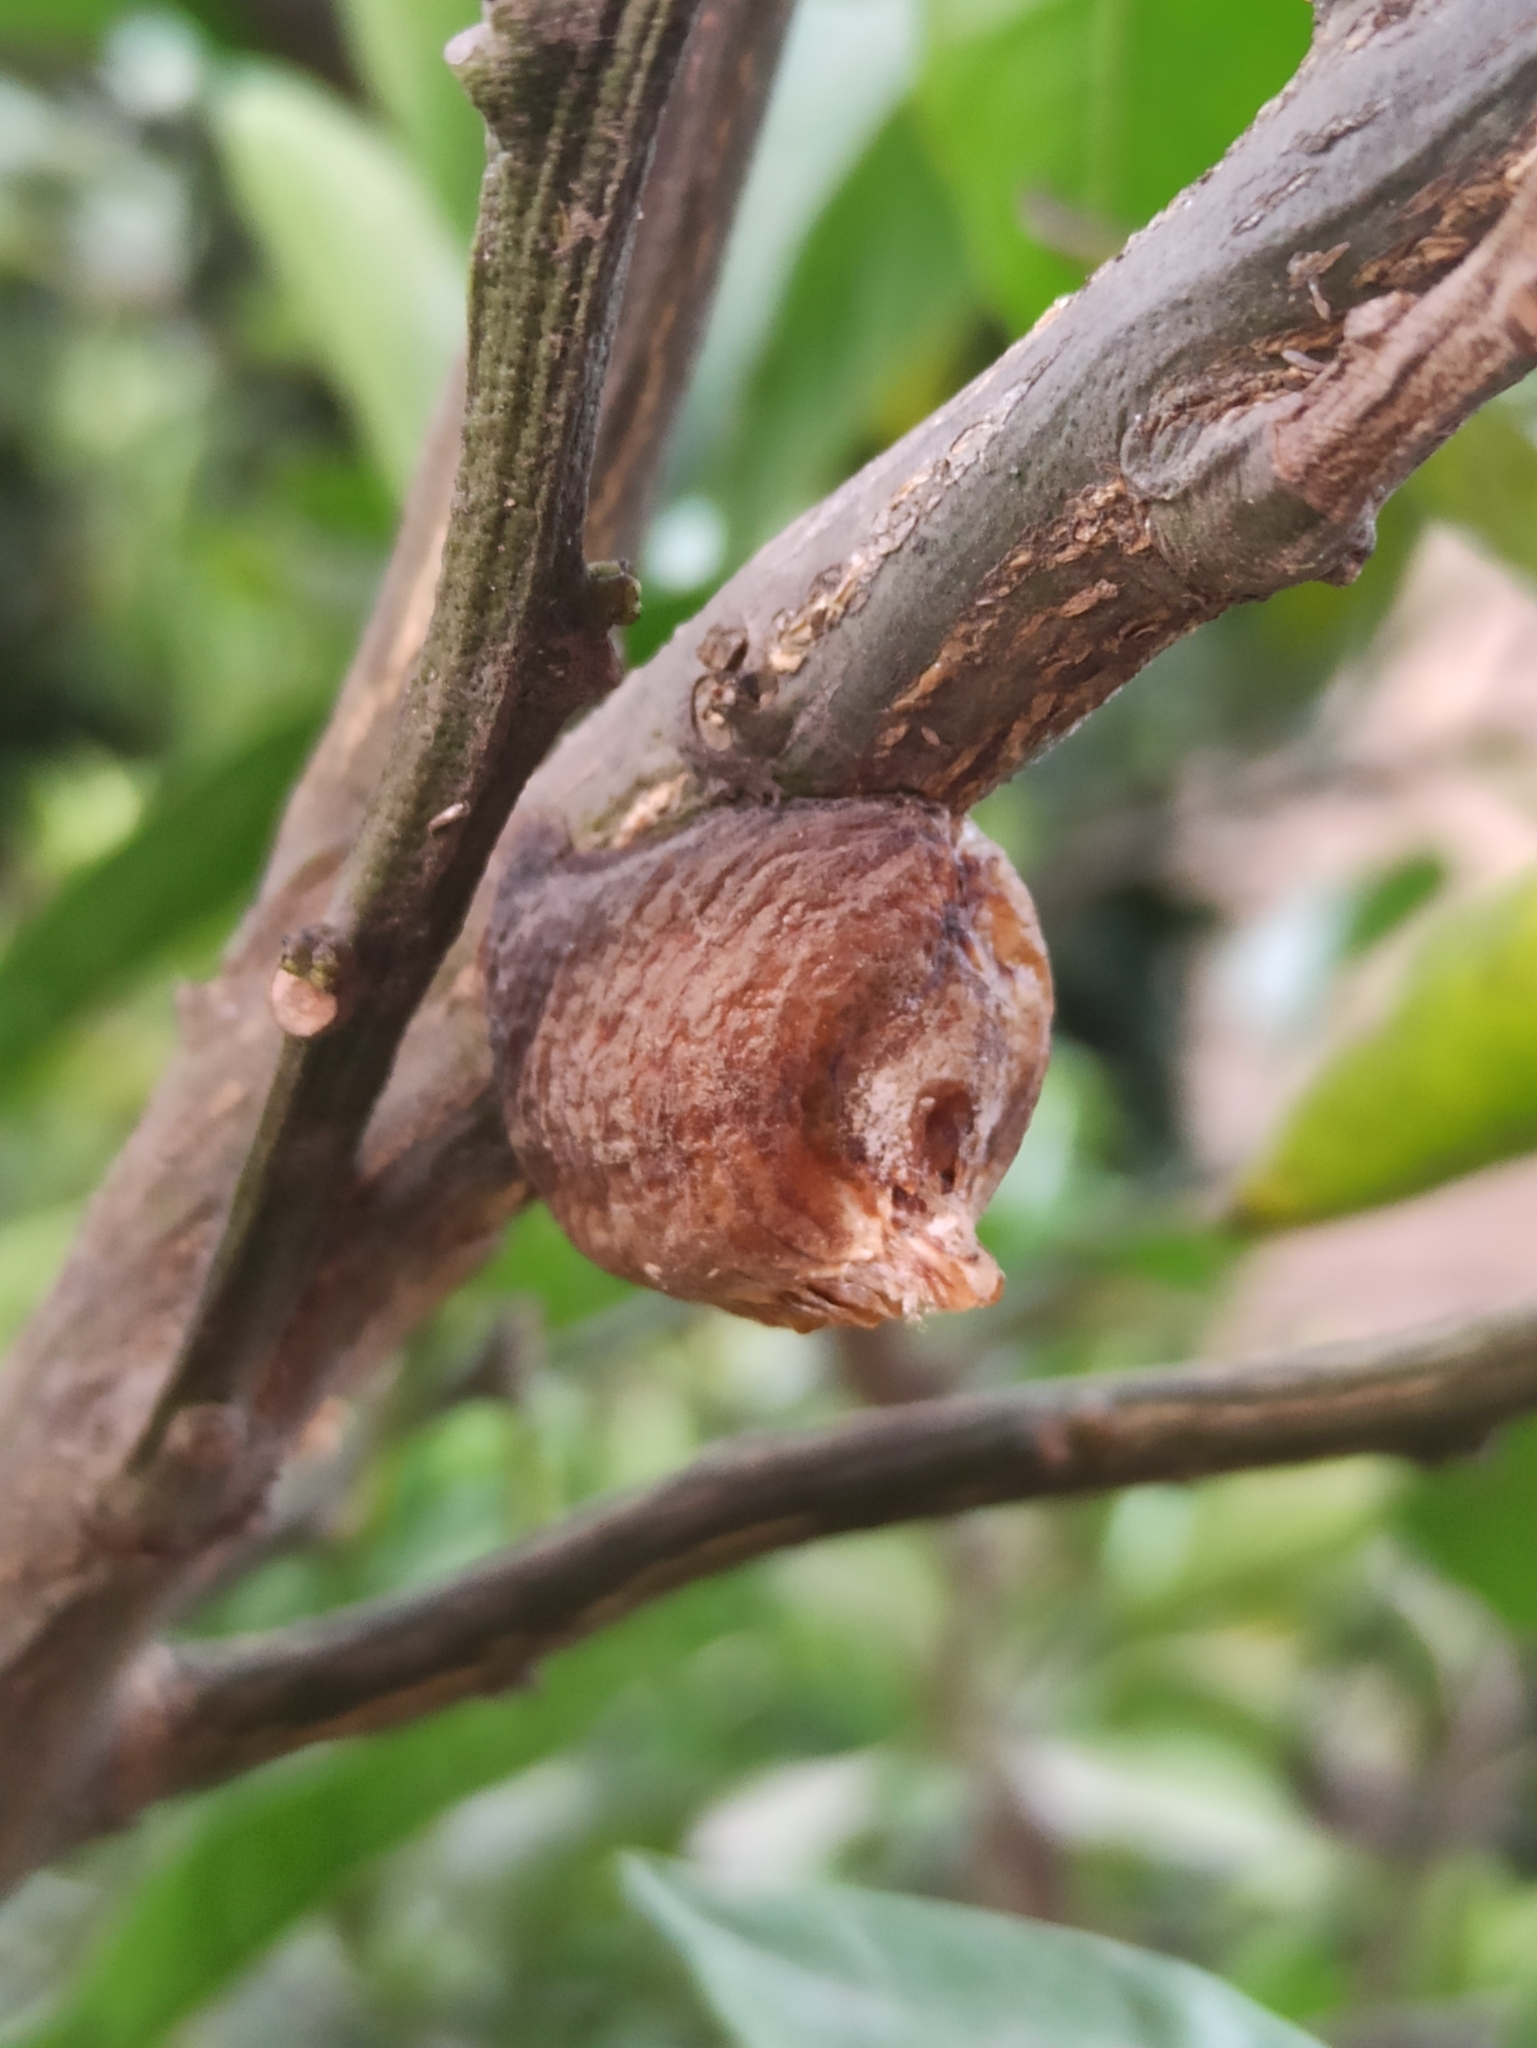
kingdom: Animalia
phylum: Arthropoda
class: Insecta
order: Mantodea
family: Mantidae
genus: Hierodula
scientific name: Hierodula transcaucasica
